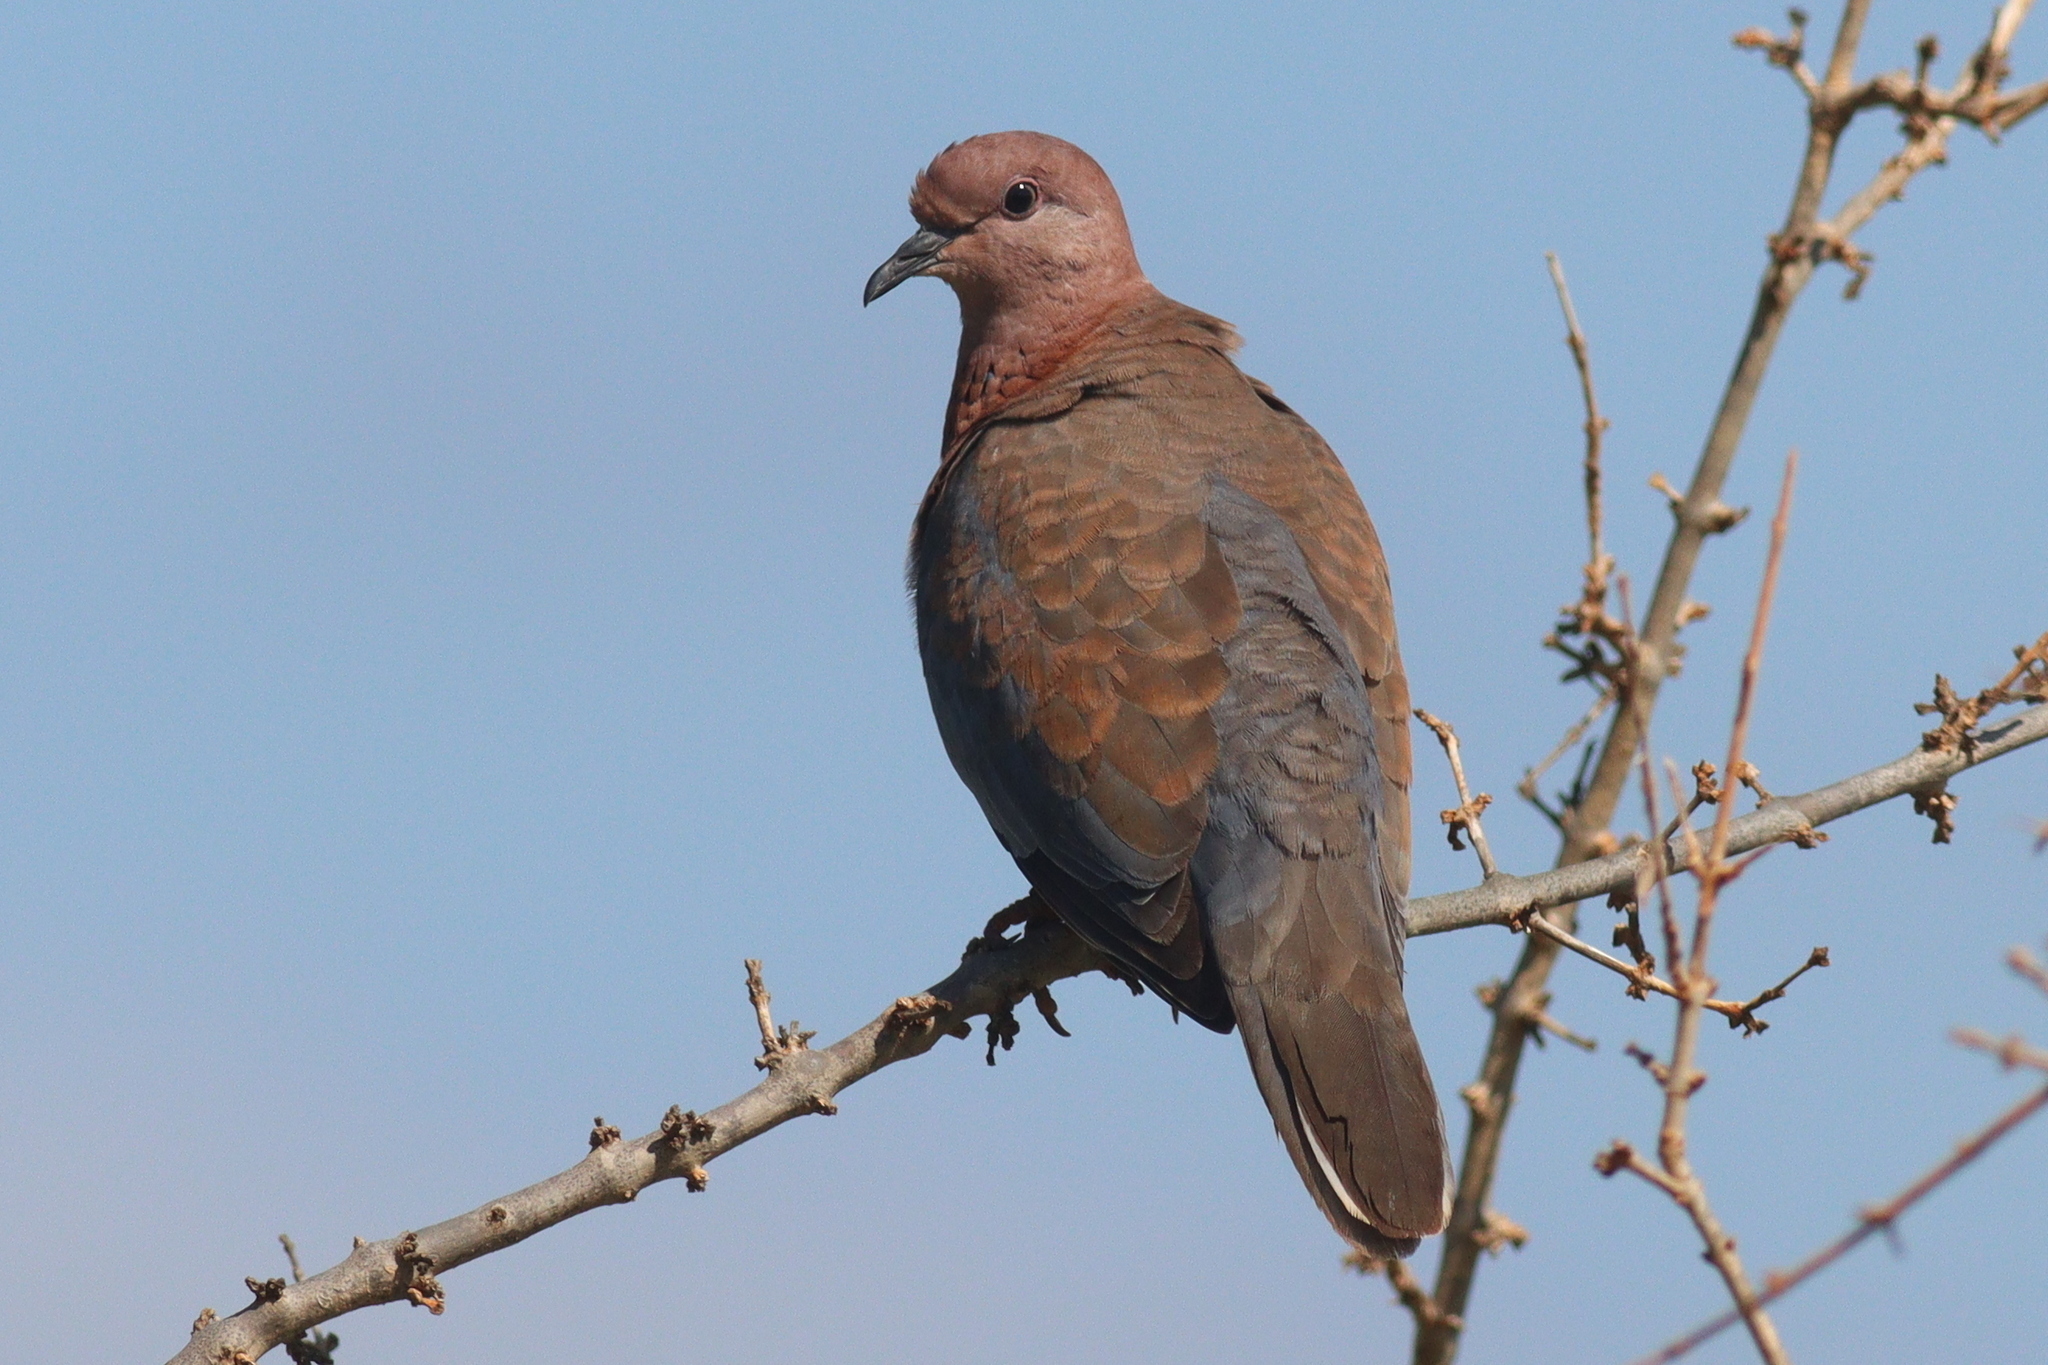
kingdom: Animalia
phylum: Chordata
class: Aves
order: Columbiformes
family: Columbidae
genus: Spilopelia
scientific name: Spilopelia senegalensis
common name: Laughing dove
